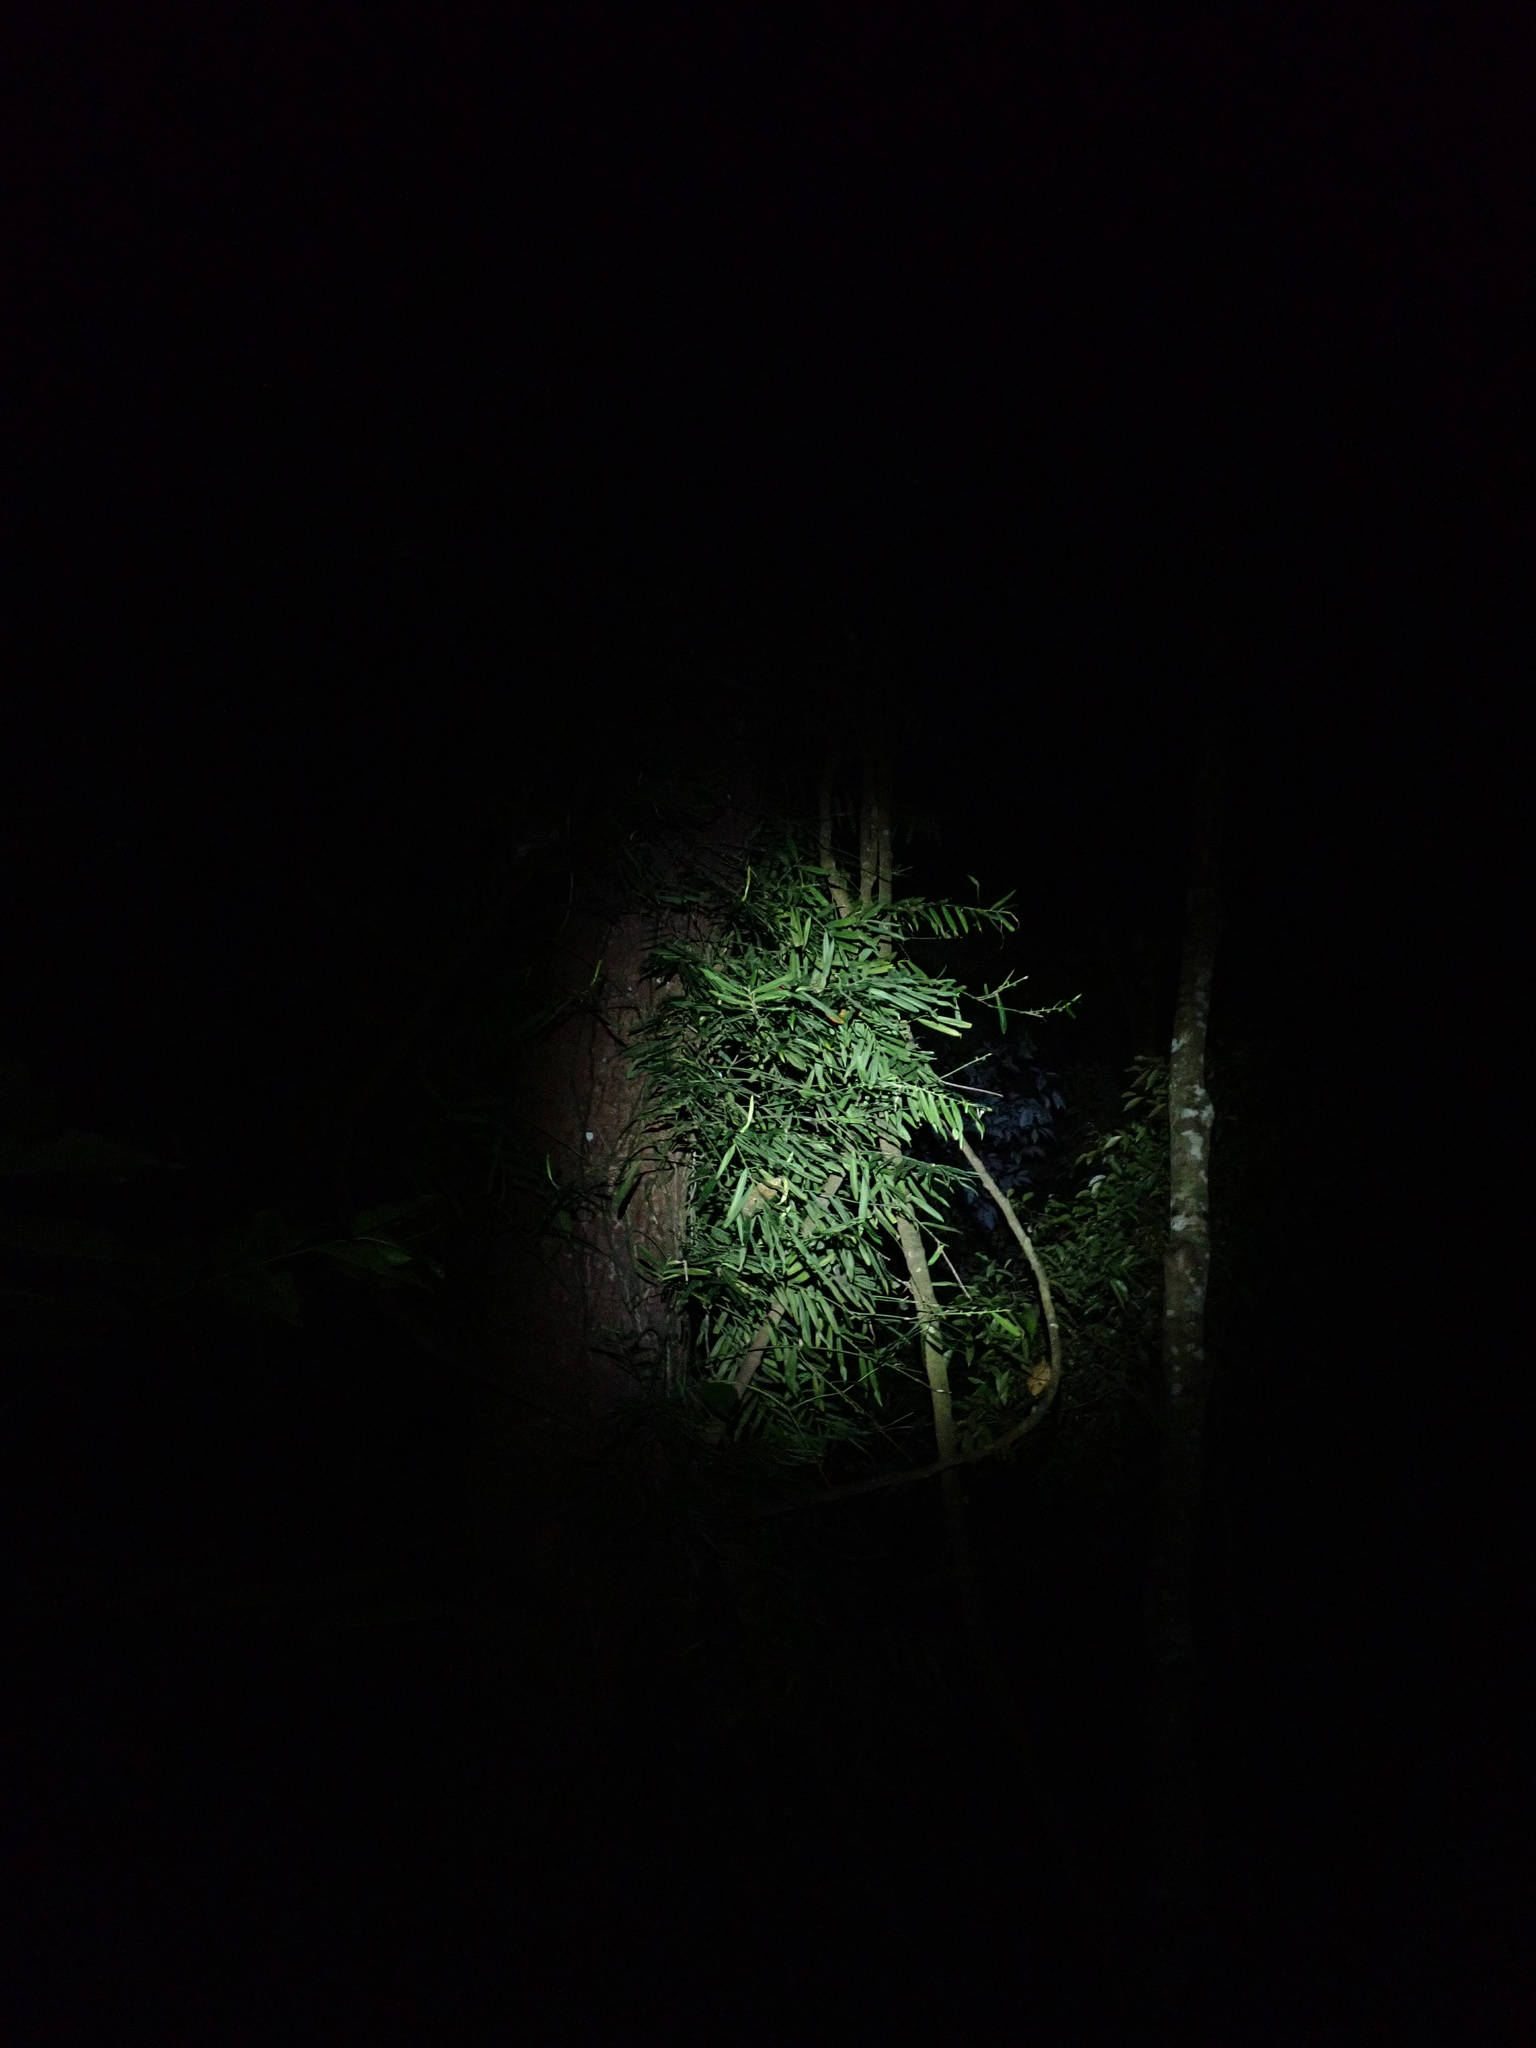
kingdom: Plantae
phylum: Tracheophyta
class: Liliopsida
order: Alismatales
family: Araceae
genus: Pothos
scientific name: Pothos longipes
